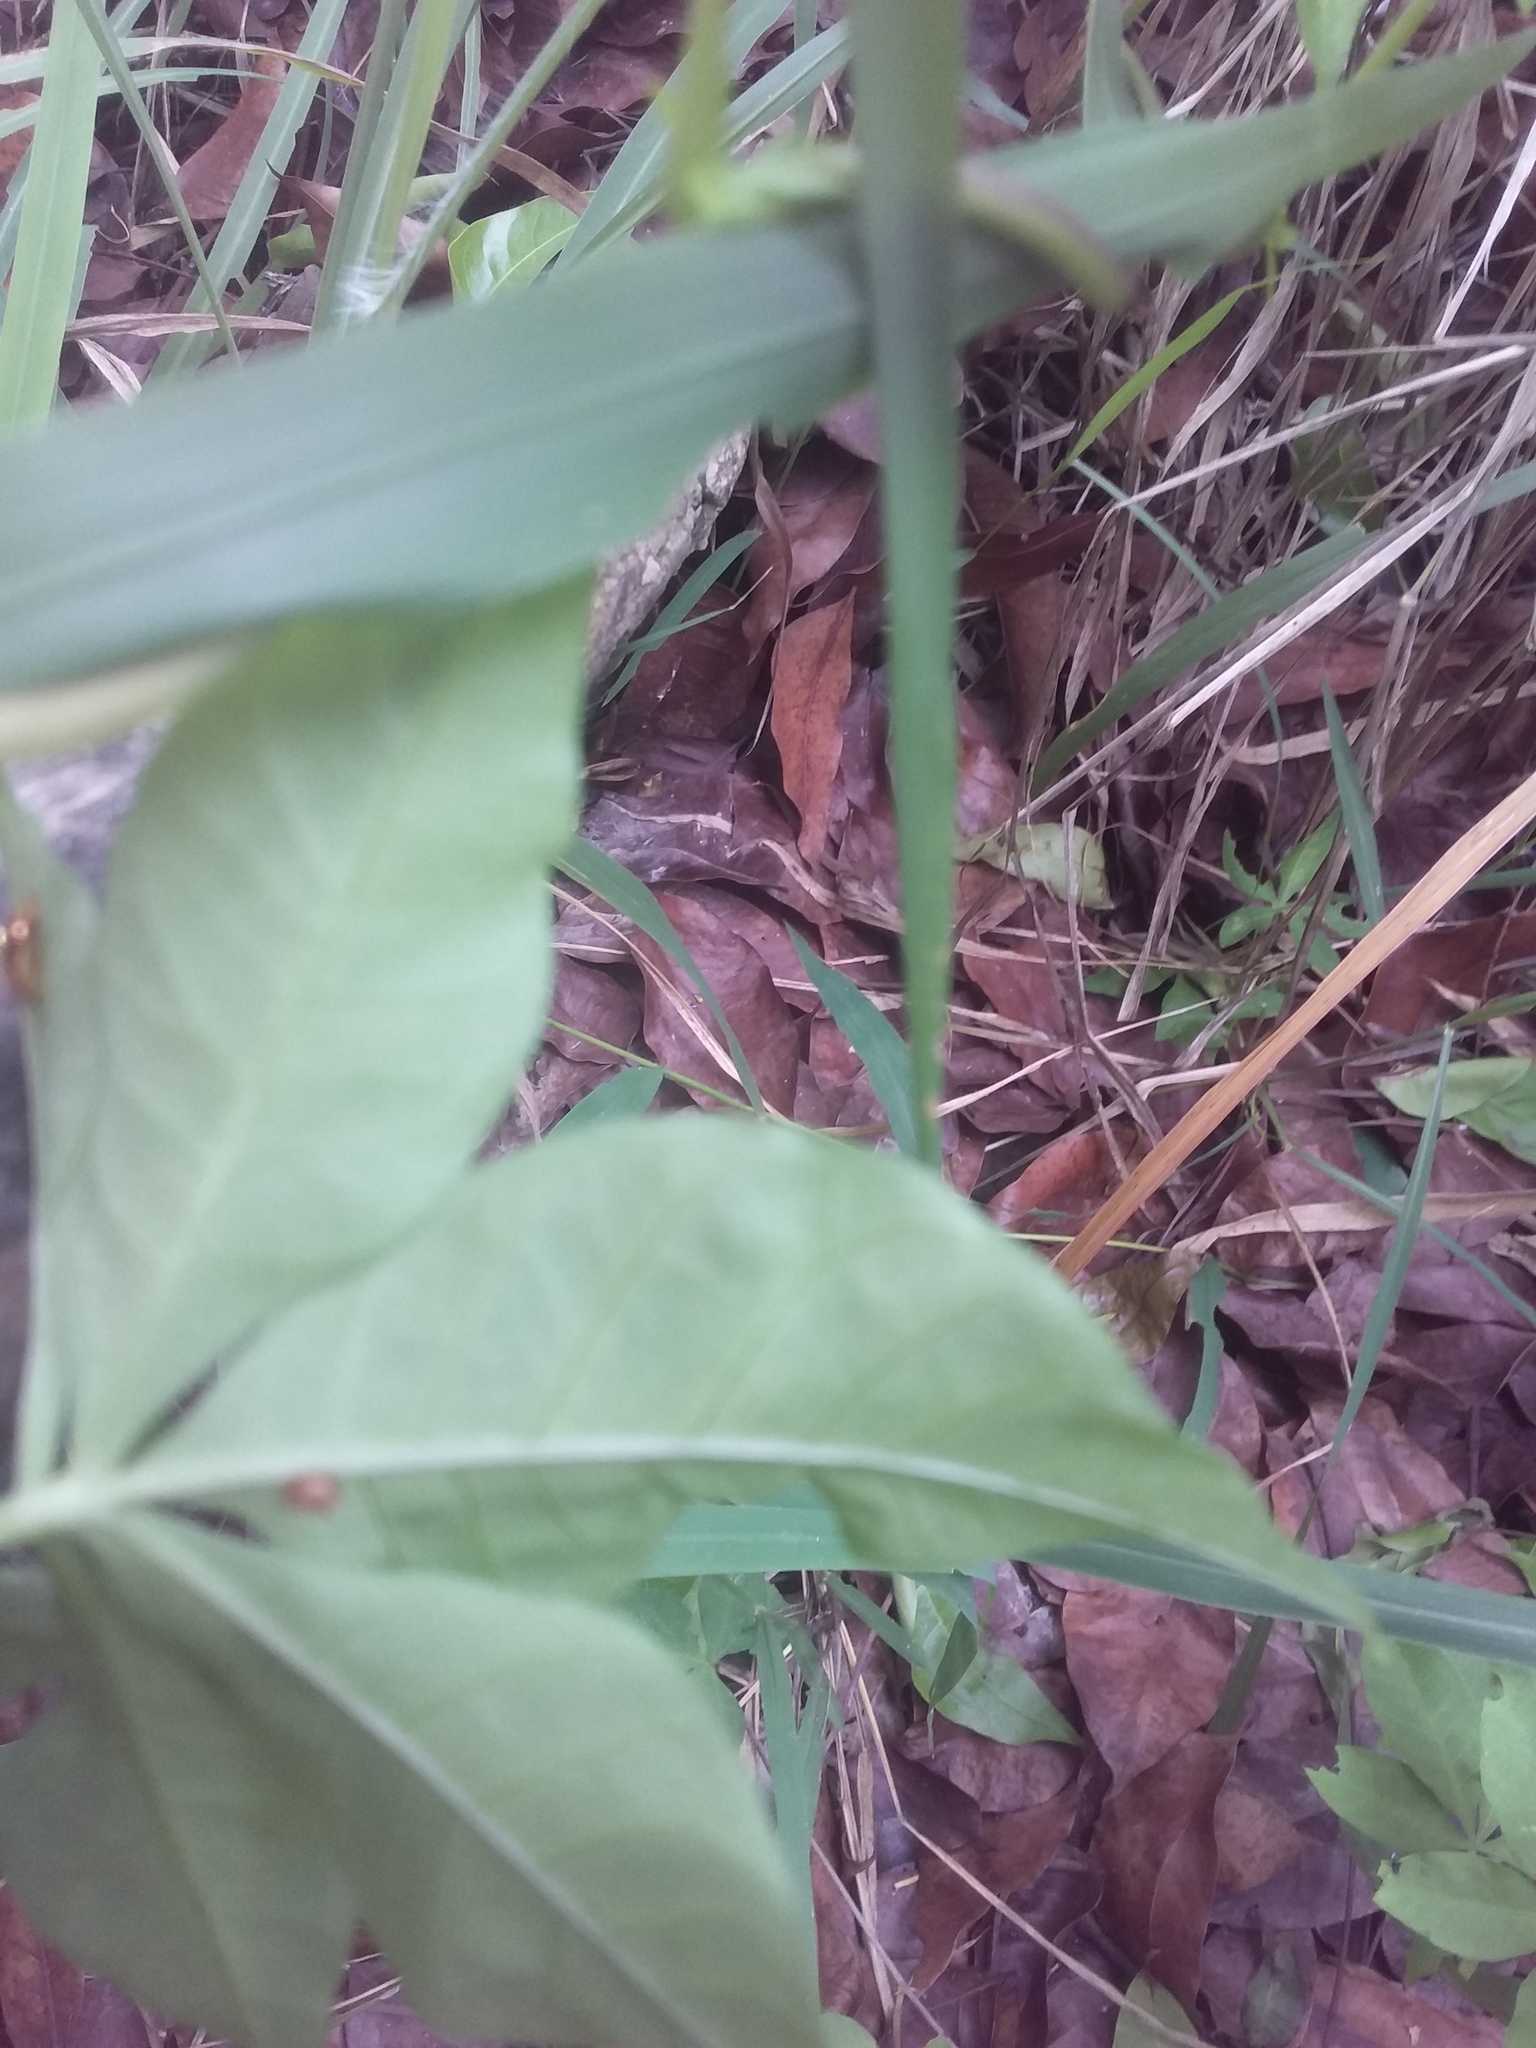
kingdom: Plantae
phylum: Tracheophyta
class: Magnoliopsida
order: Solanales
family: Convolvulaceae
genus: Ipomoea
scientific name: Ipomoea cairica
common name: Mile a minute vine
